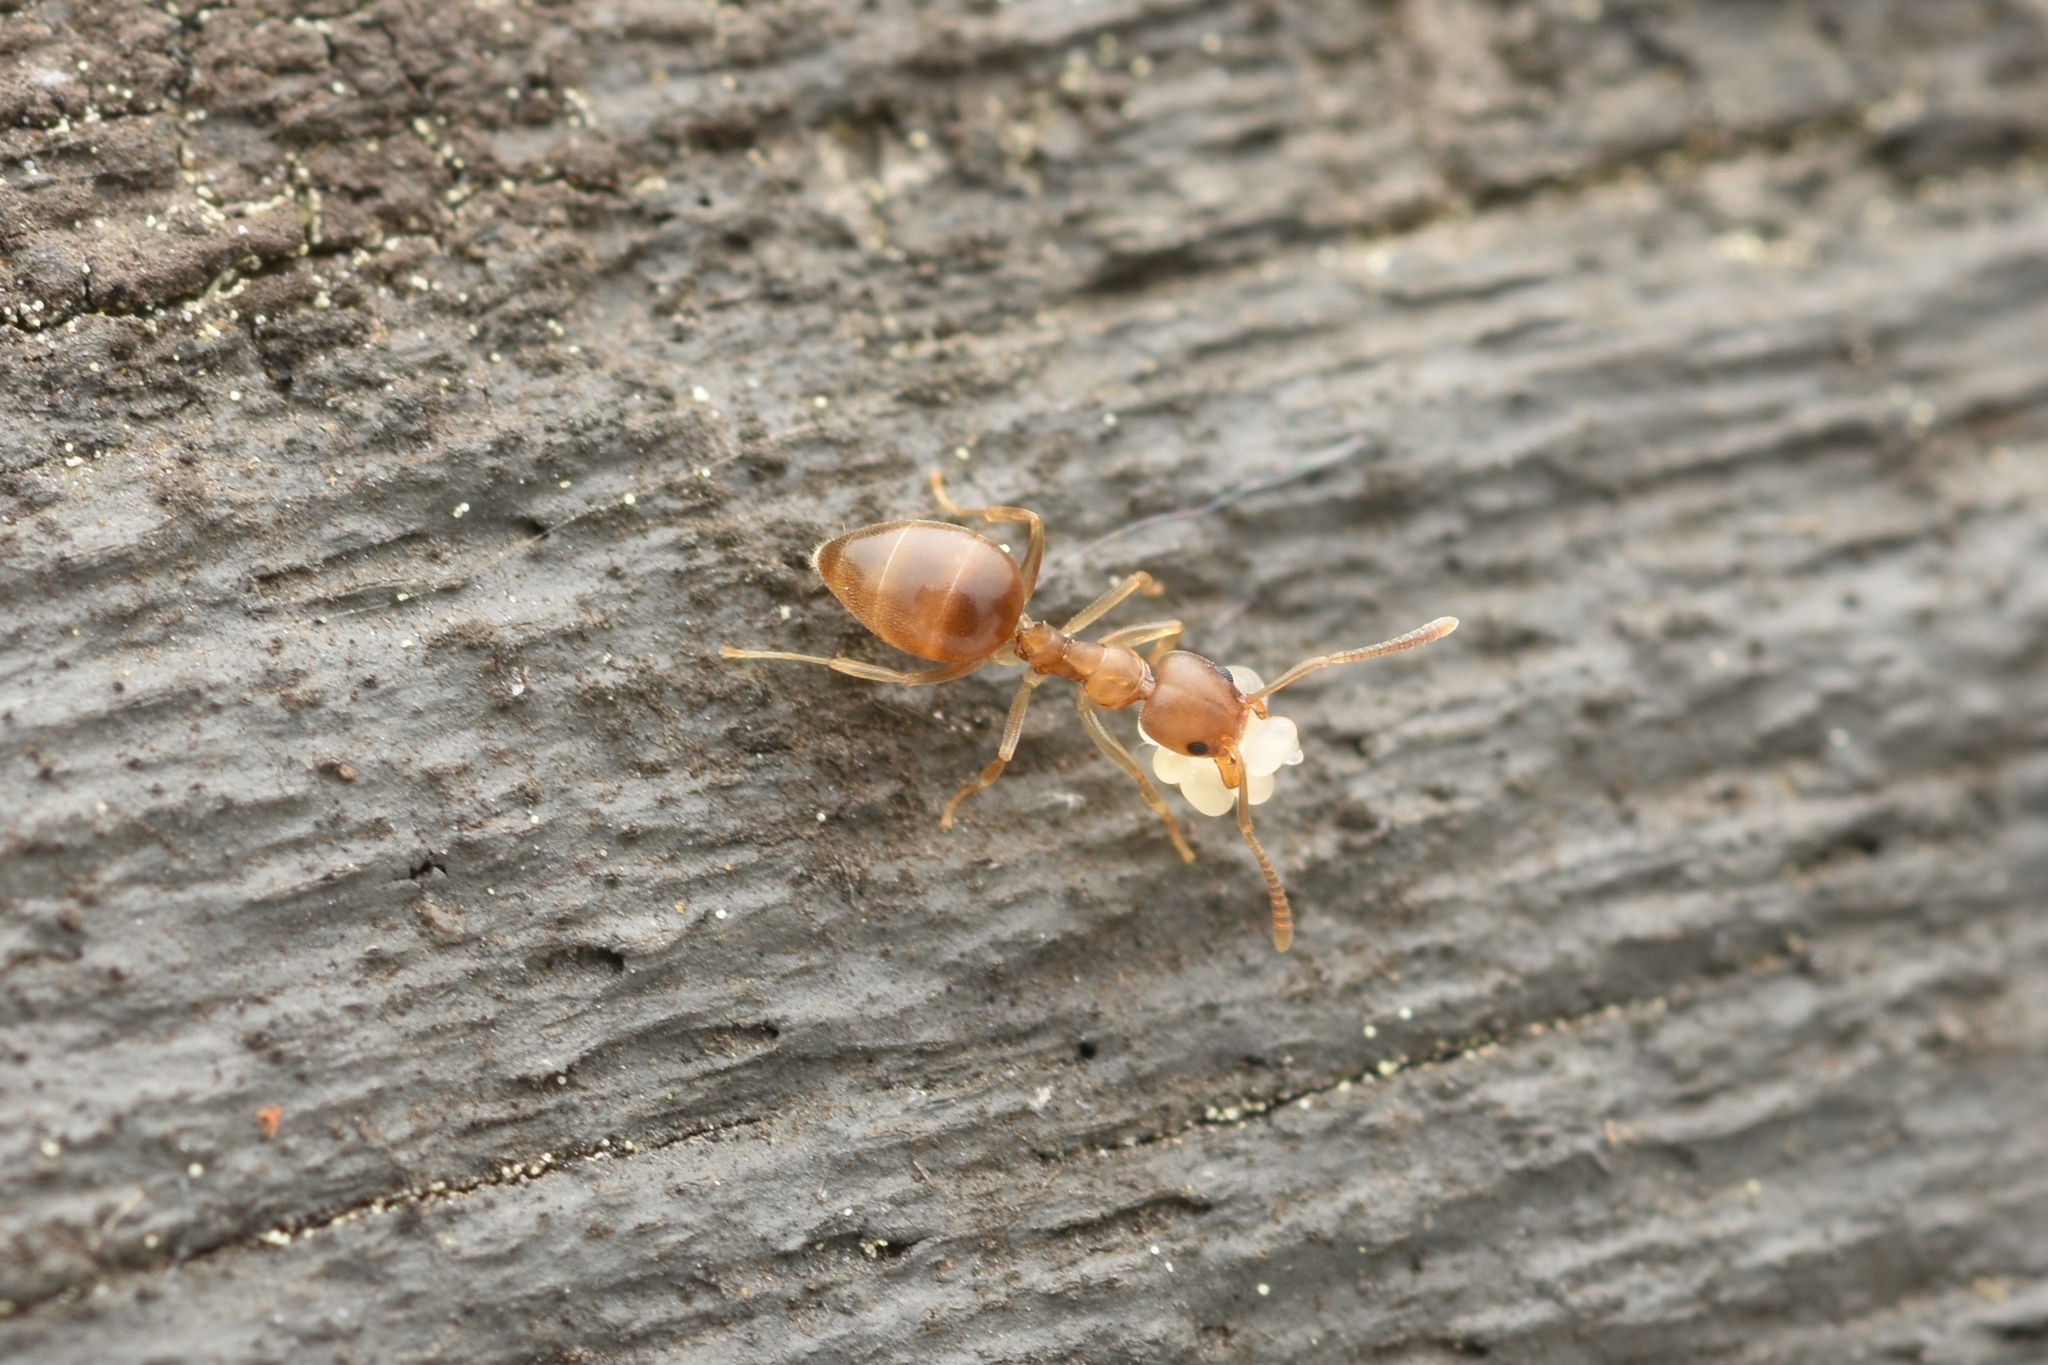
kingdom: Animalia
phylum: Arthropoda
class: Insecta
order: Hymenoptera
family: Formicidae
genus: Technomyrmex
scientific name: Technomyrmex gibbosus
